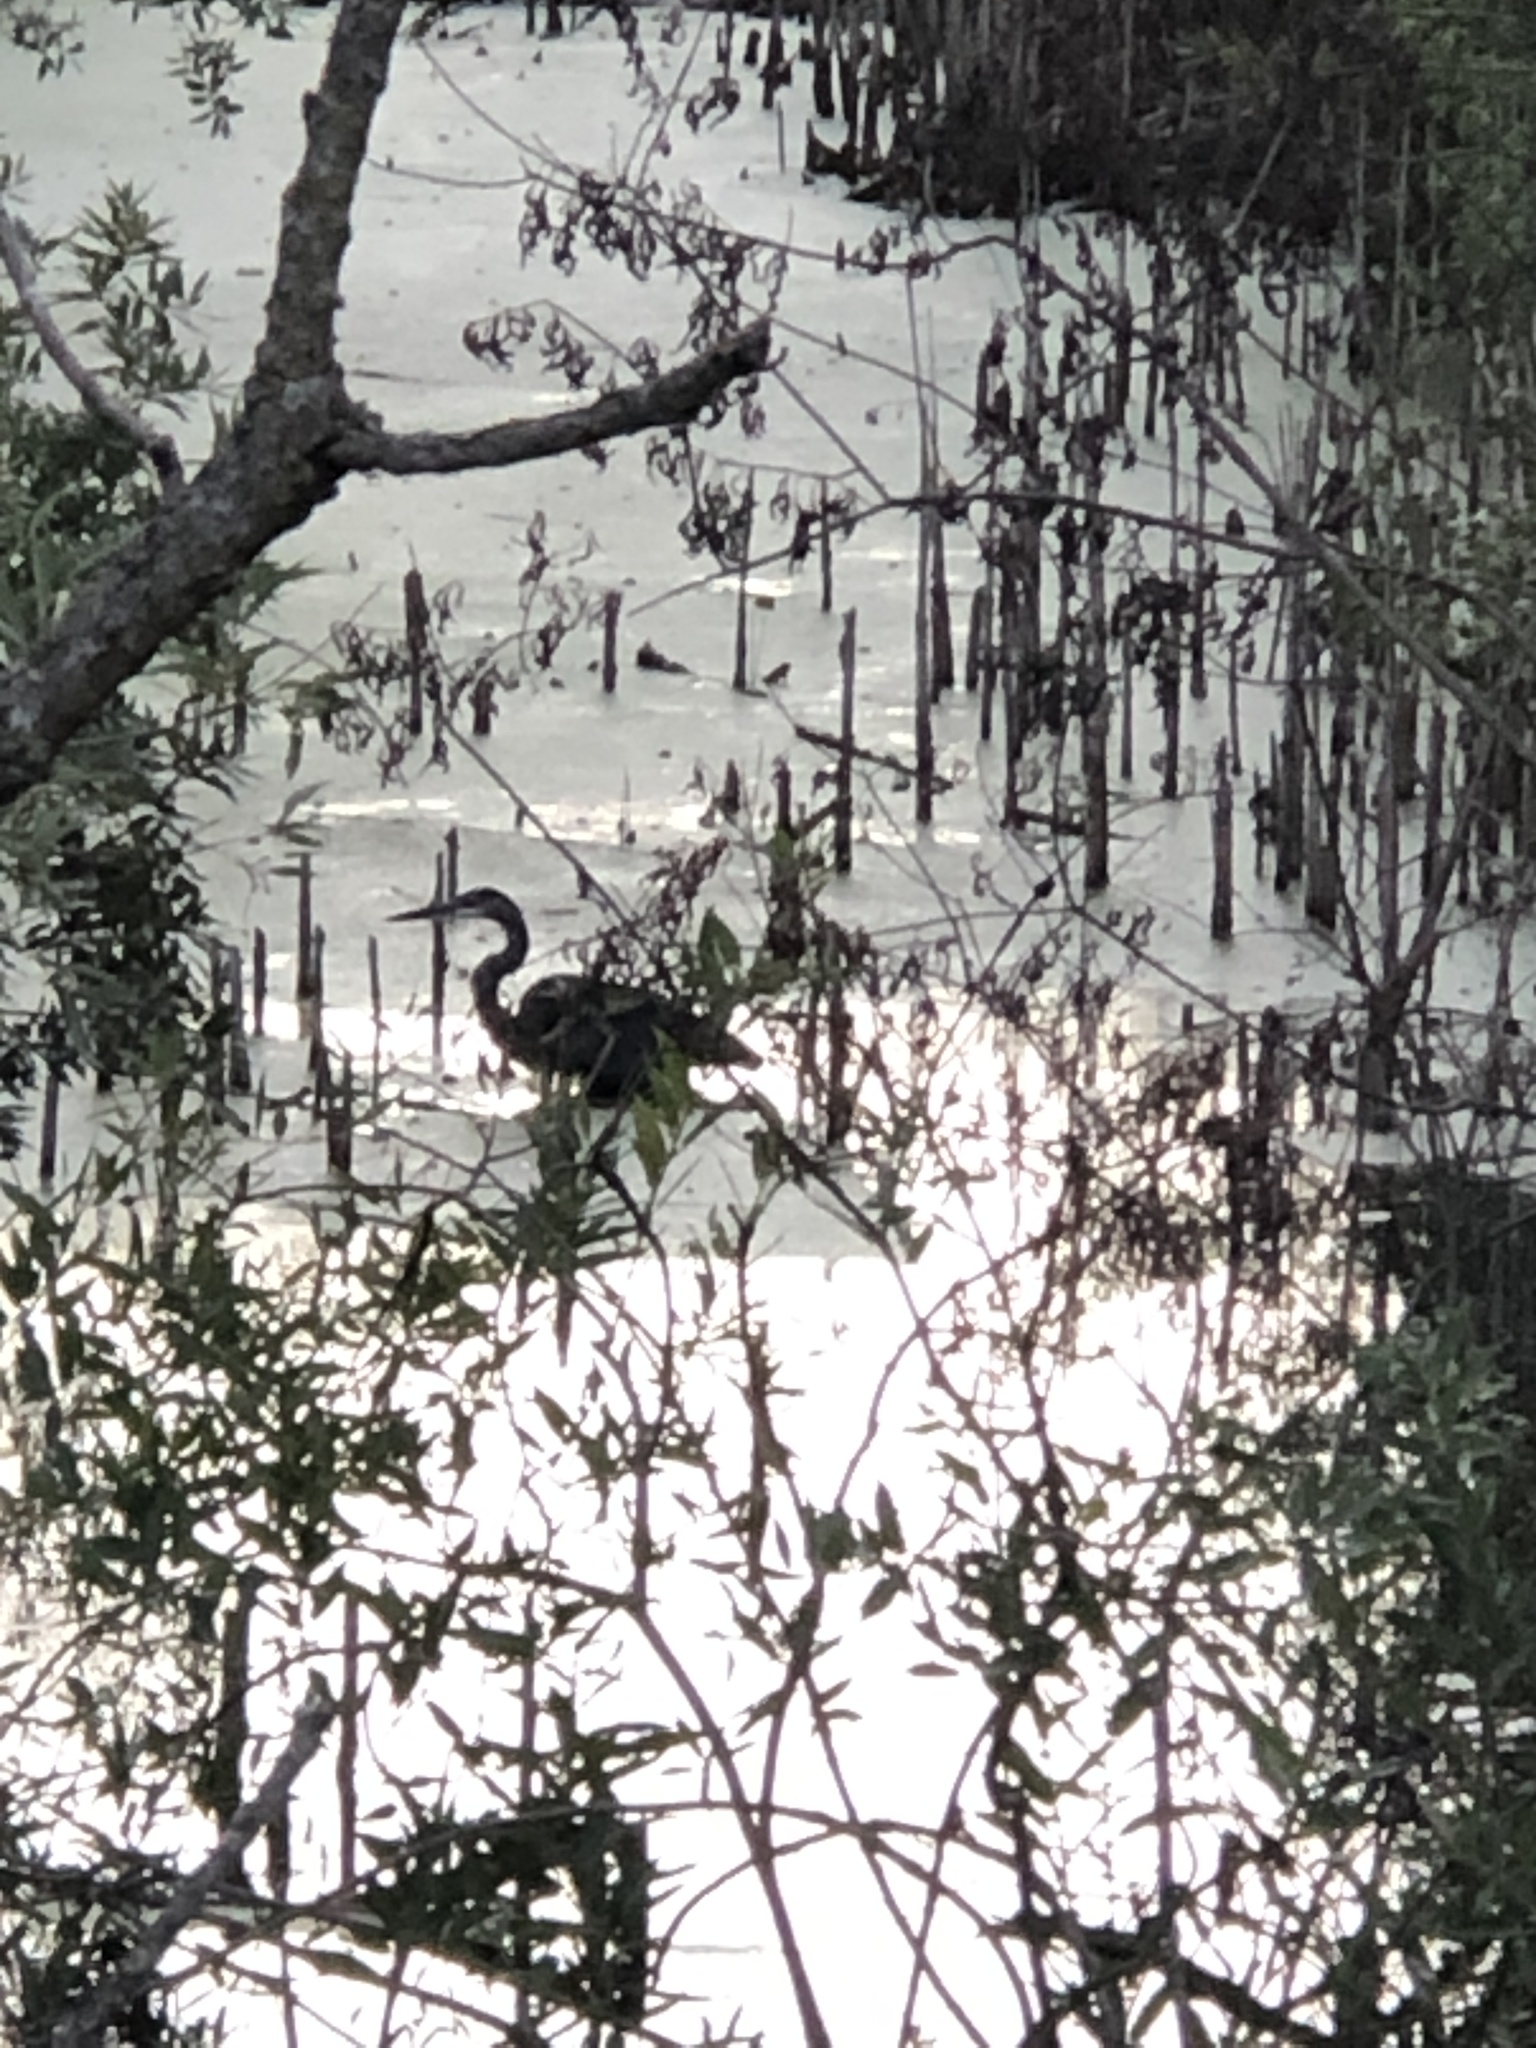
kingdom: Animalia
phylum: Chordata
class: Aves
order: Pelecaniformes
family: Ardeidae
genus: Ardea
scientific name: Ardea herodias
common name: Great blue heron
